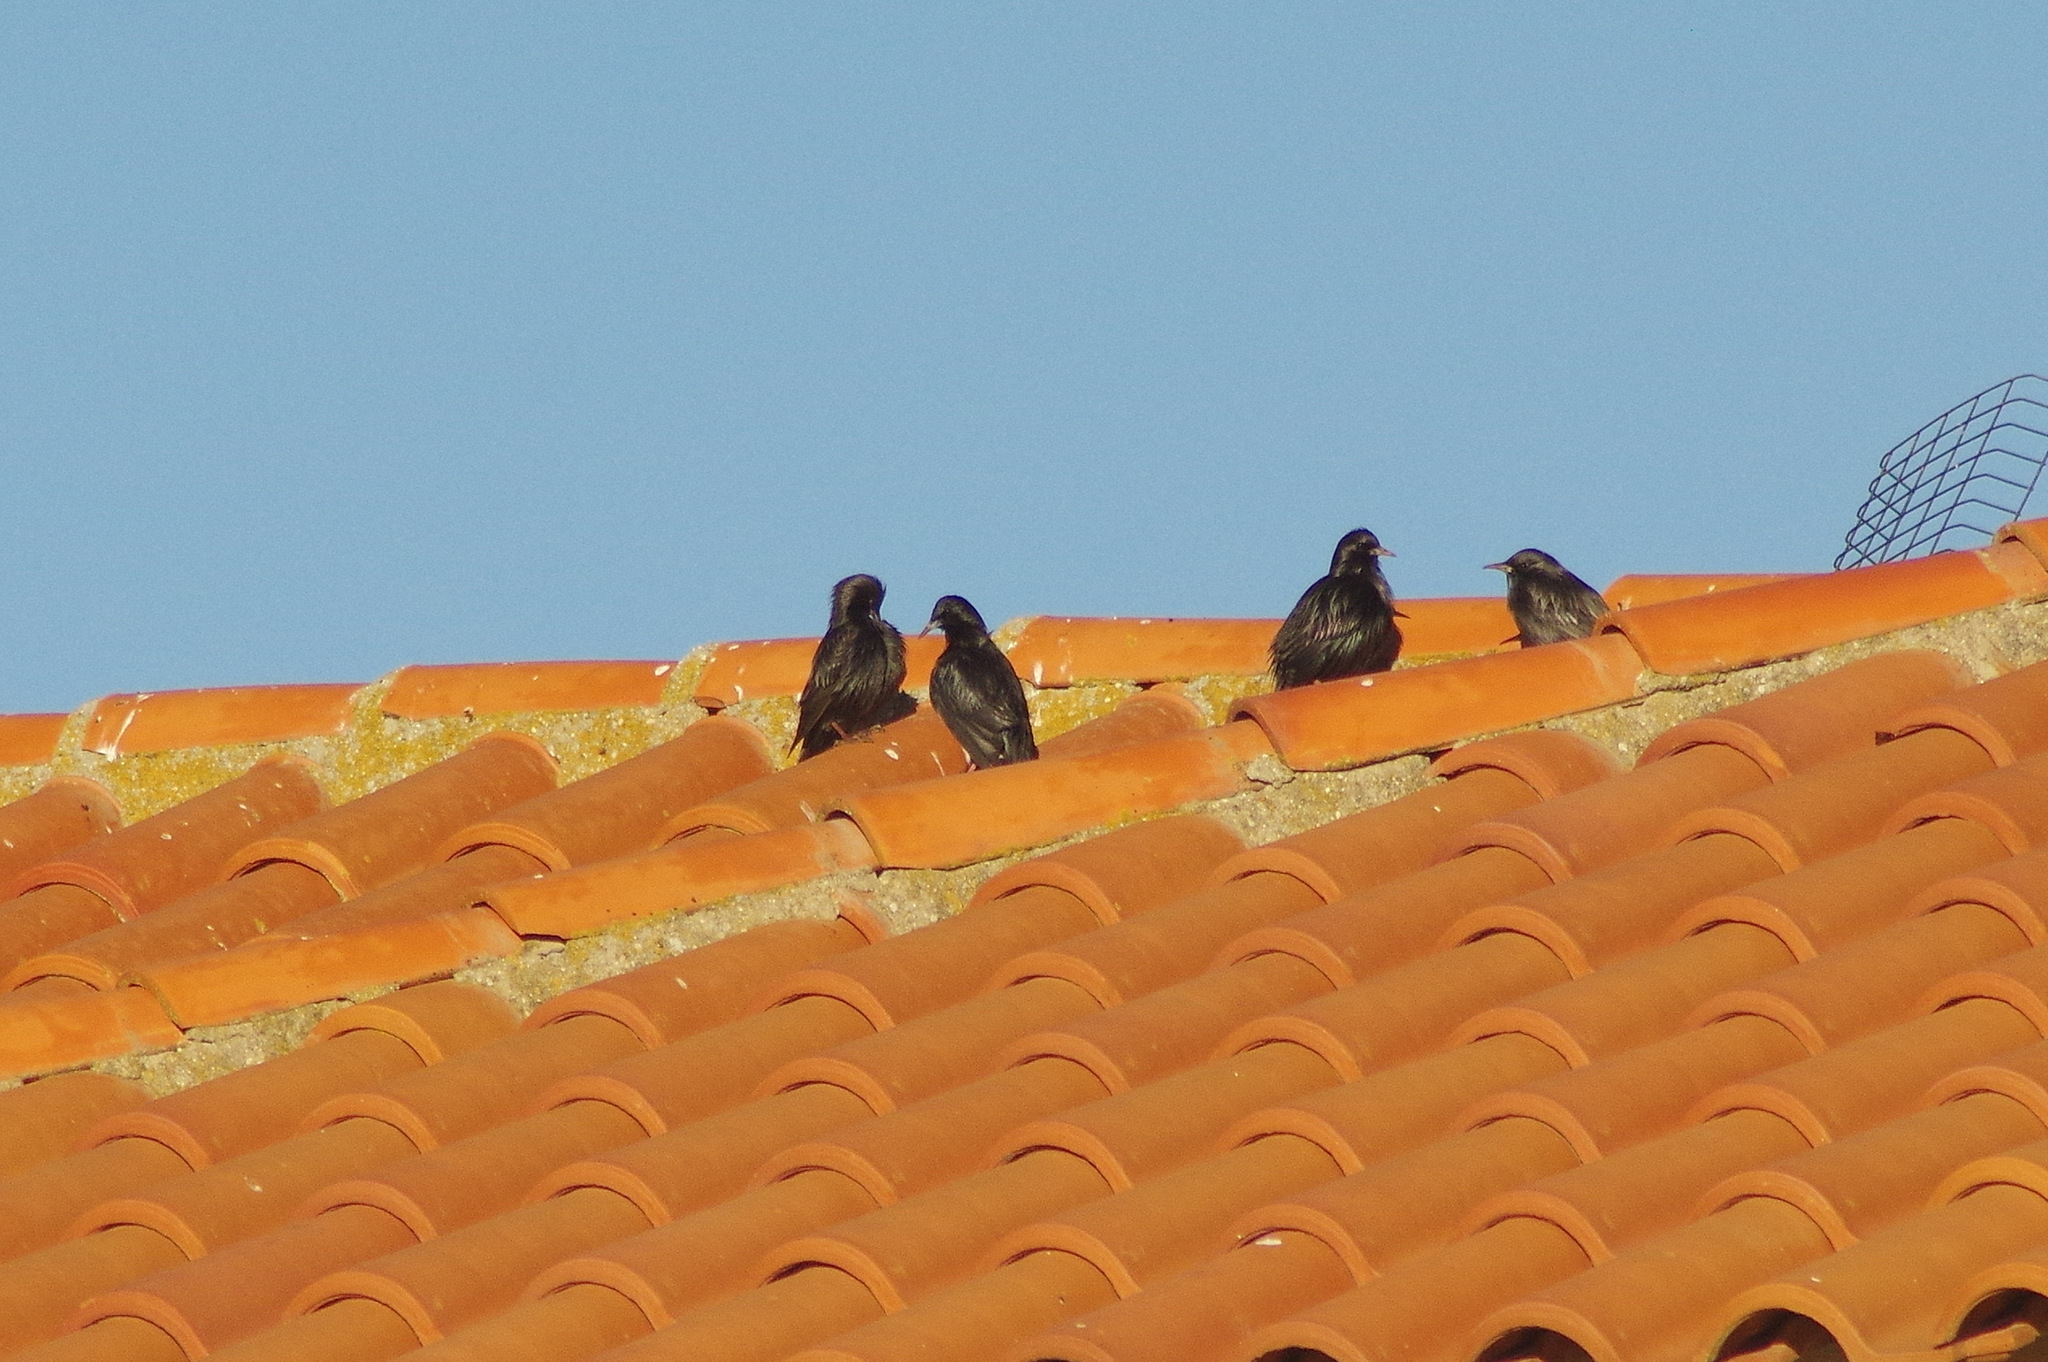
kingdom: Animalia
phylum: Chordata
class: Aves
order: Passeriformes
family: Sturnidae
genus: Sturnus
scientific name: Sturnus unicolor
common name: Spotless starling
